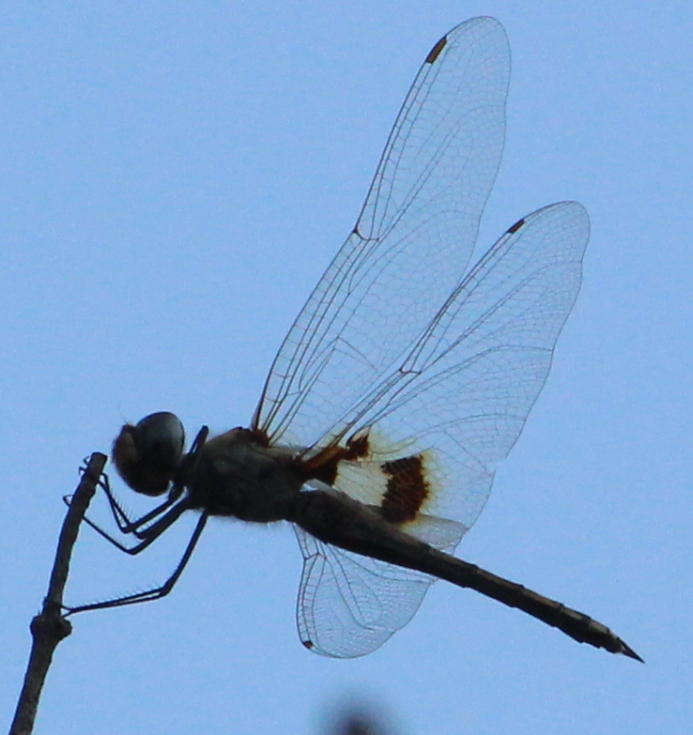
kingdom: Animalia
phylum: Arthropoda
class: Insecta
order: Odonata
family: Libellulidae
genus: Tramea
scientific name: Tramea basilaris
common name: Keyhole glider
